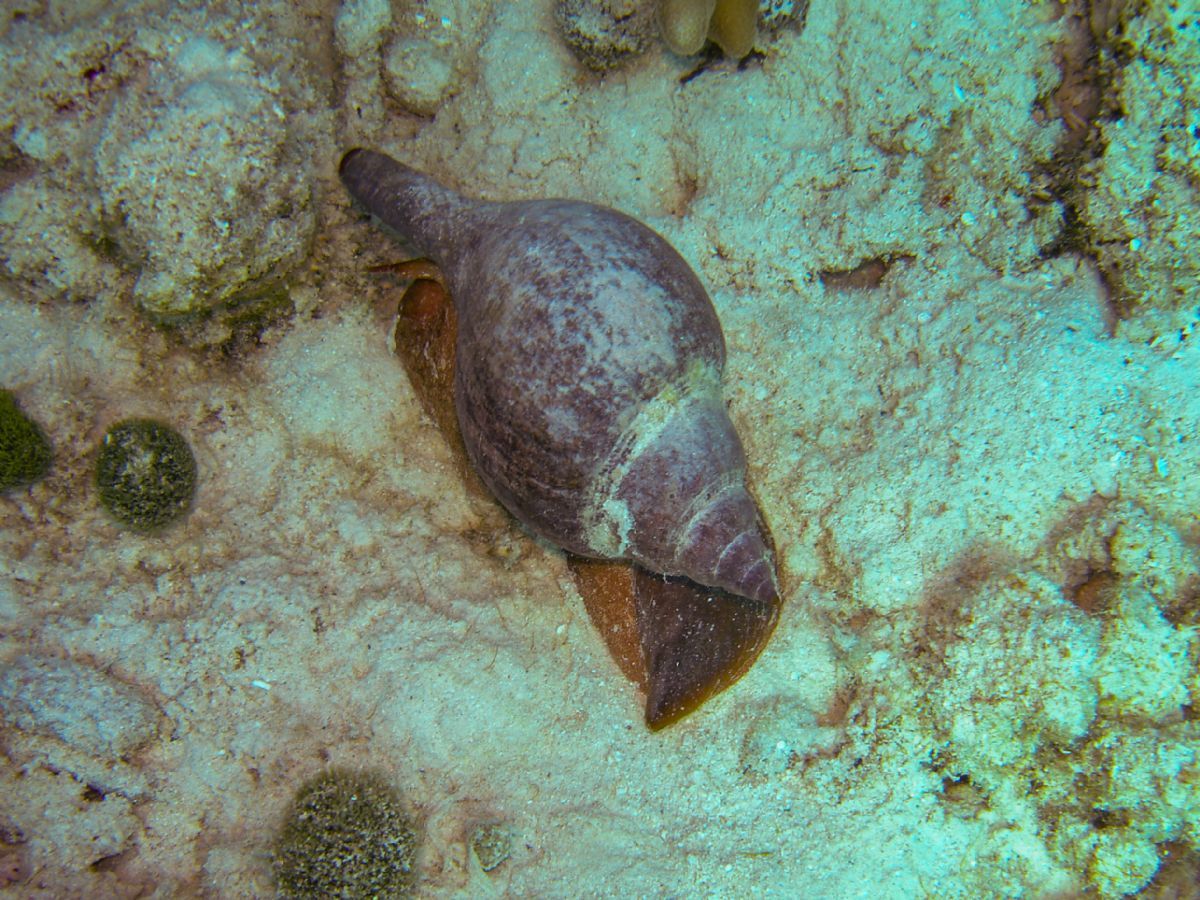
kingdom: Animalia
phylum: Mollusca
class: Gastropoda
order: Neogastropoda
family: Fasciolariidae
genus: Fasciolaria
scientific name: Fasciolaria tulipa
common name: True tulip
